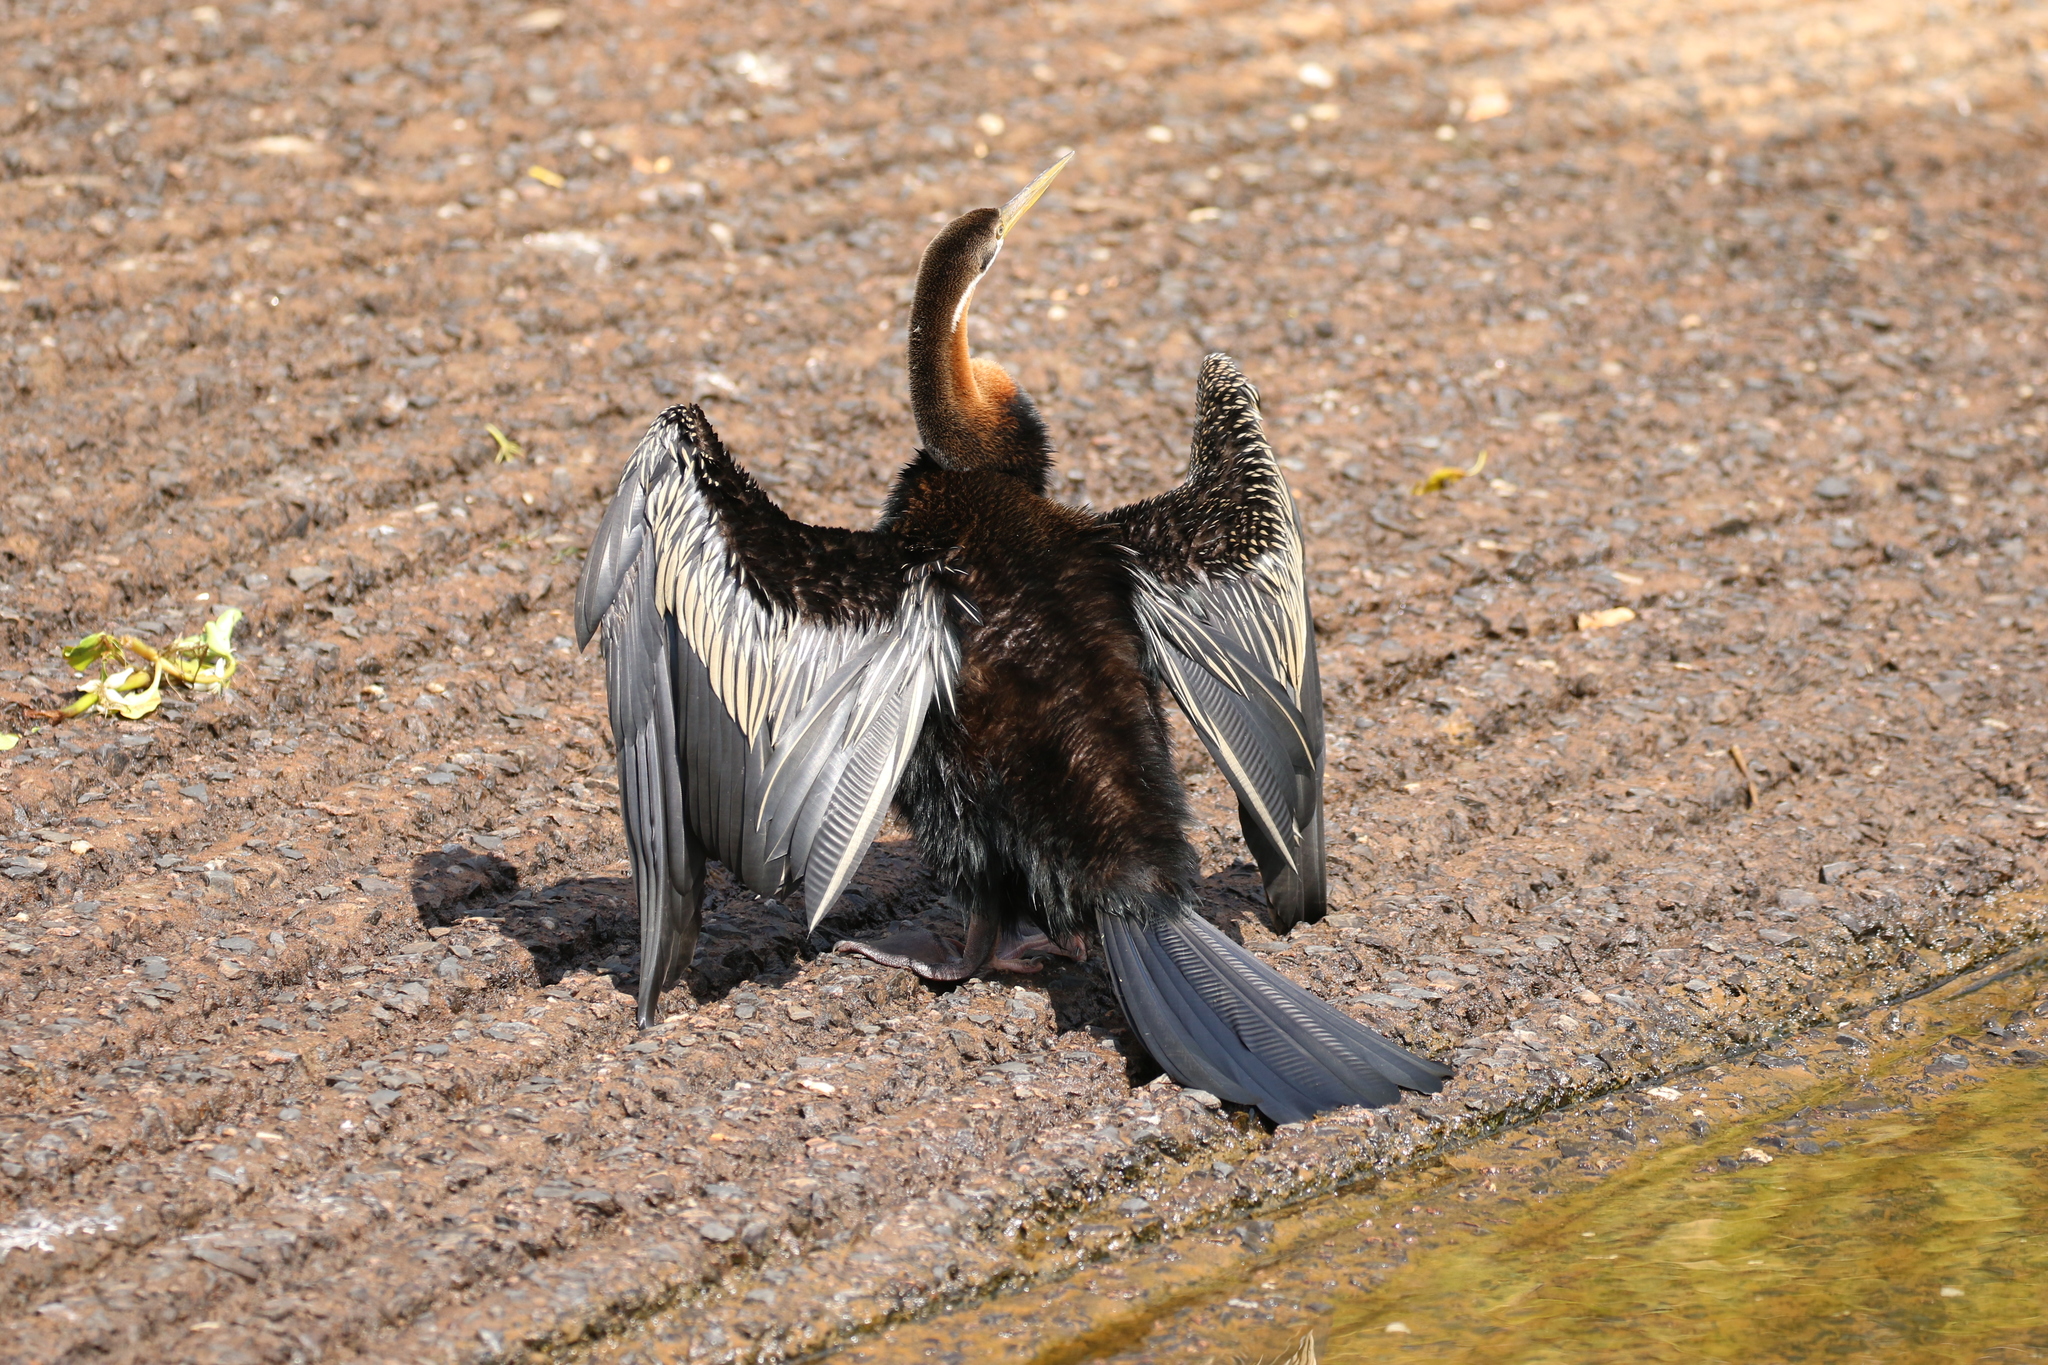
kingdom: Animalia
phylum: Chordata
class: Aves
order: Suliformes
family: Anhingidae
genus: Anhinga
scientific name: Anhinga novaehollandiae
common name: Australasian darter
